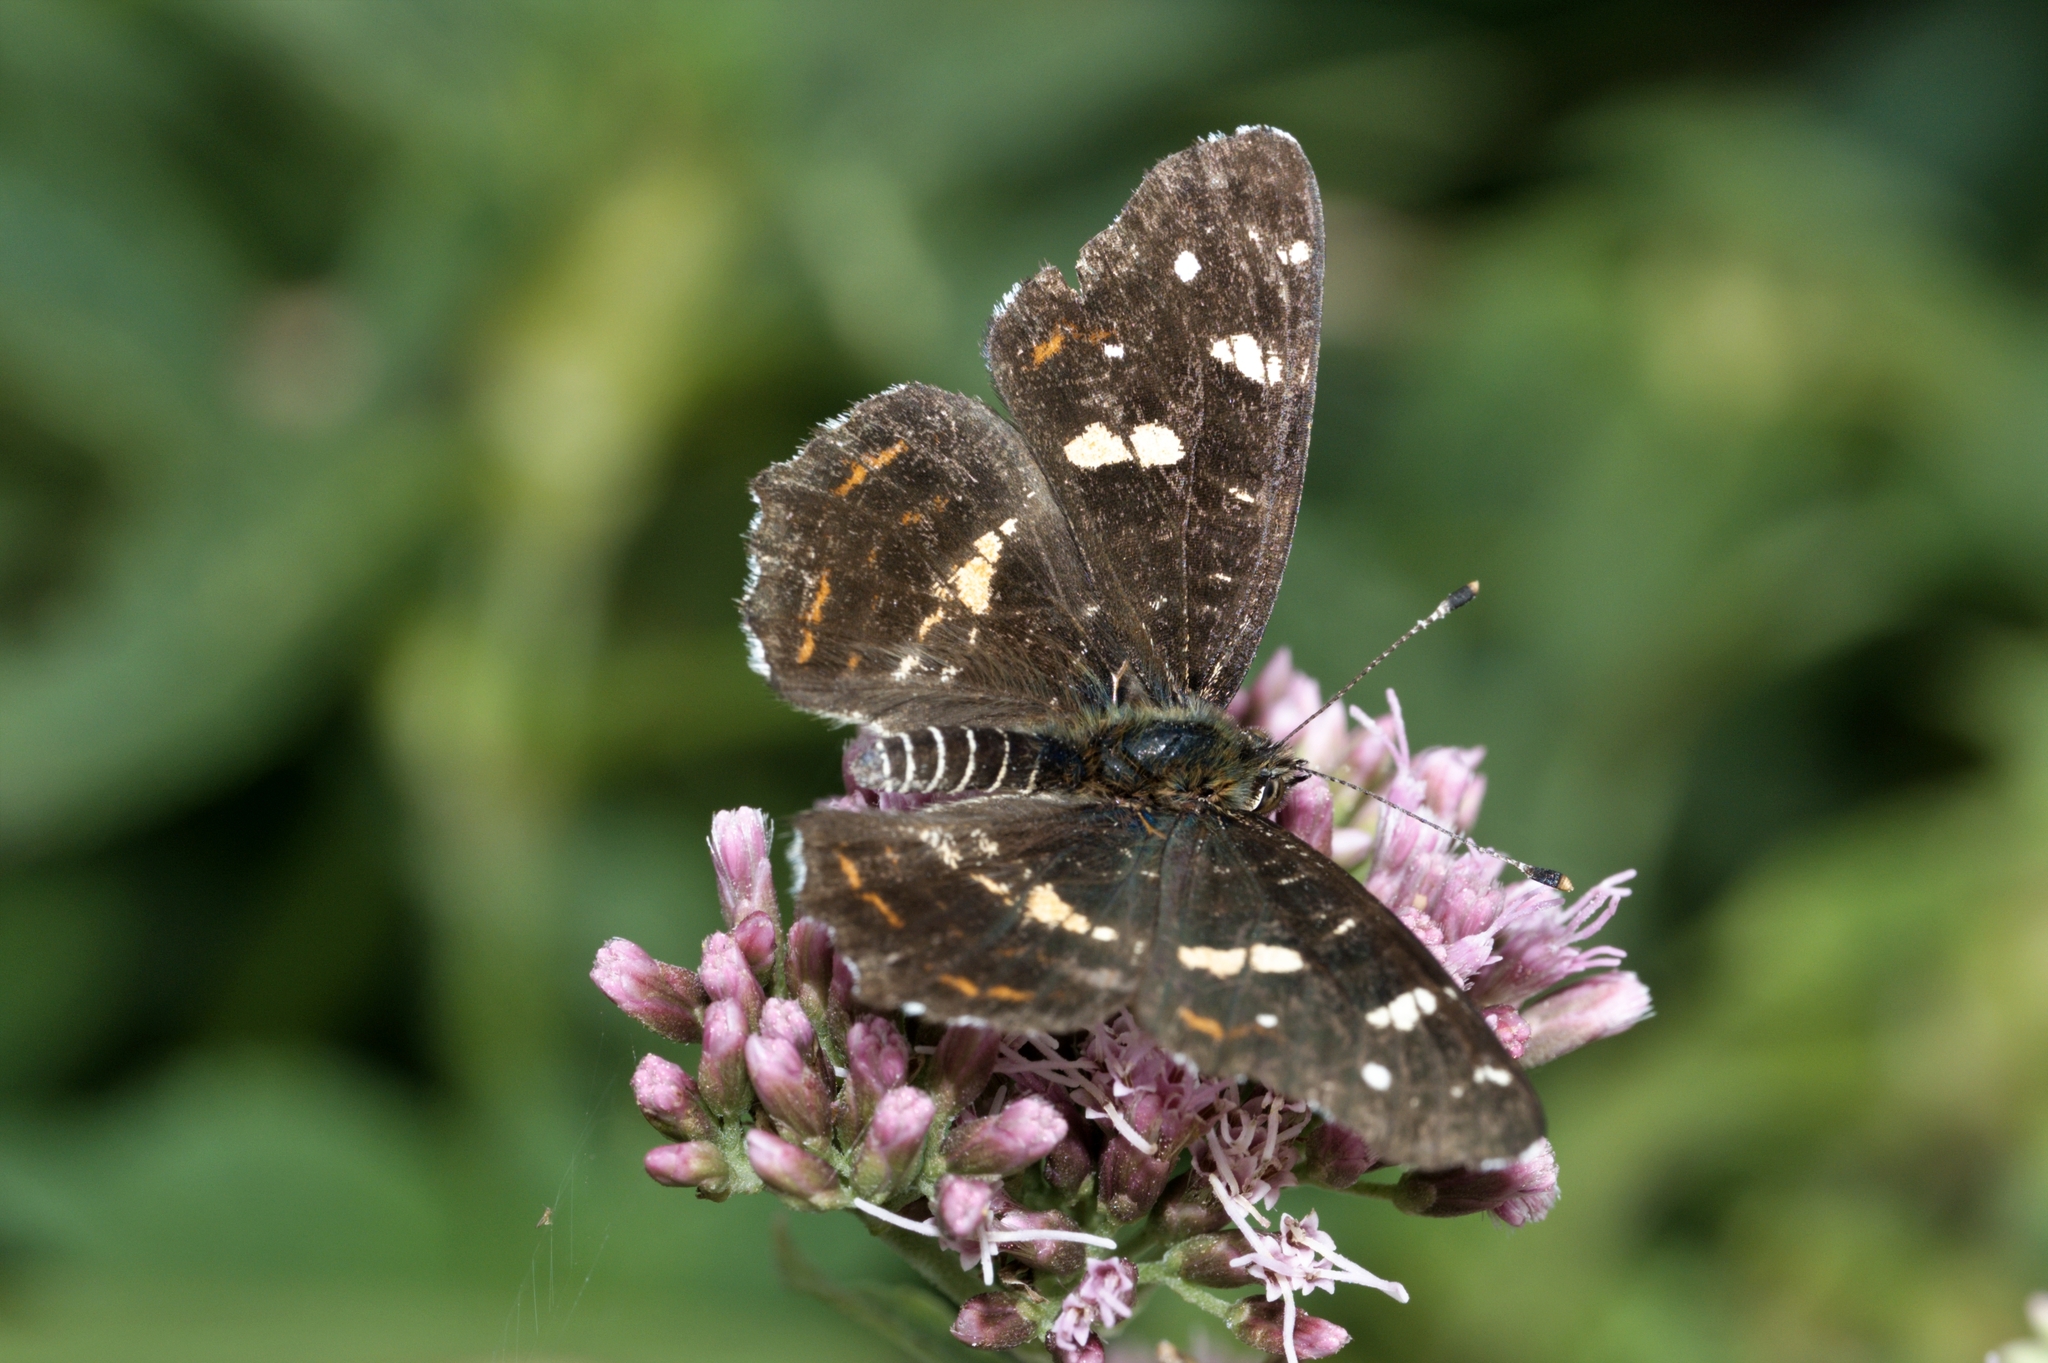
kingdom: Animalia
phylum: Arthropoda
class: Insecta
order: Lepidoptera
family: Nymphalidae
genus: Araschnia
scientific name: Araschnia levana
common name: Map butterfly
